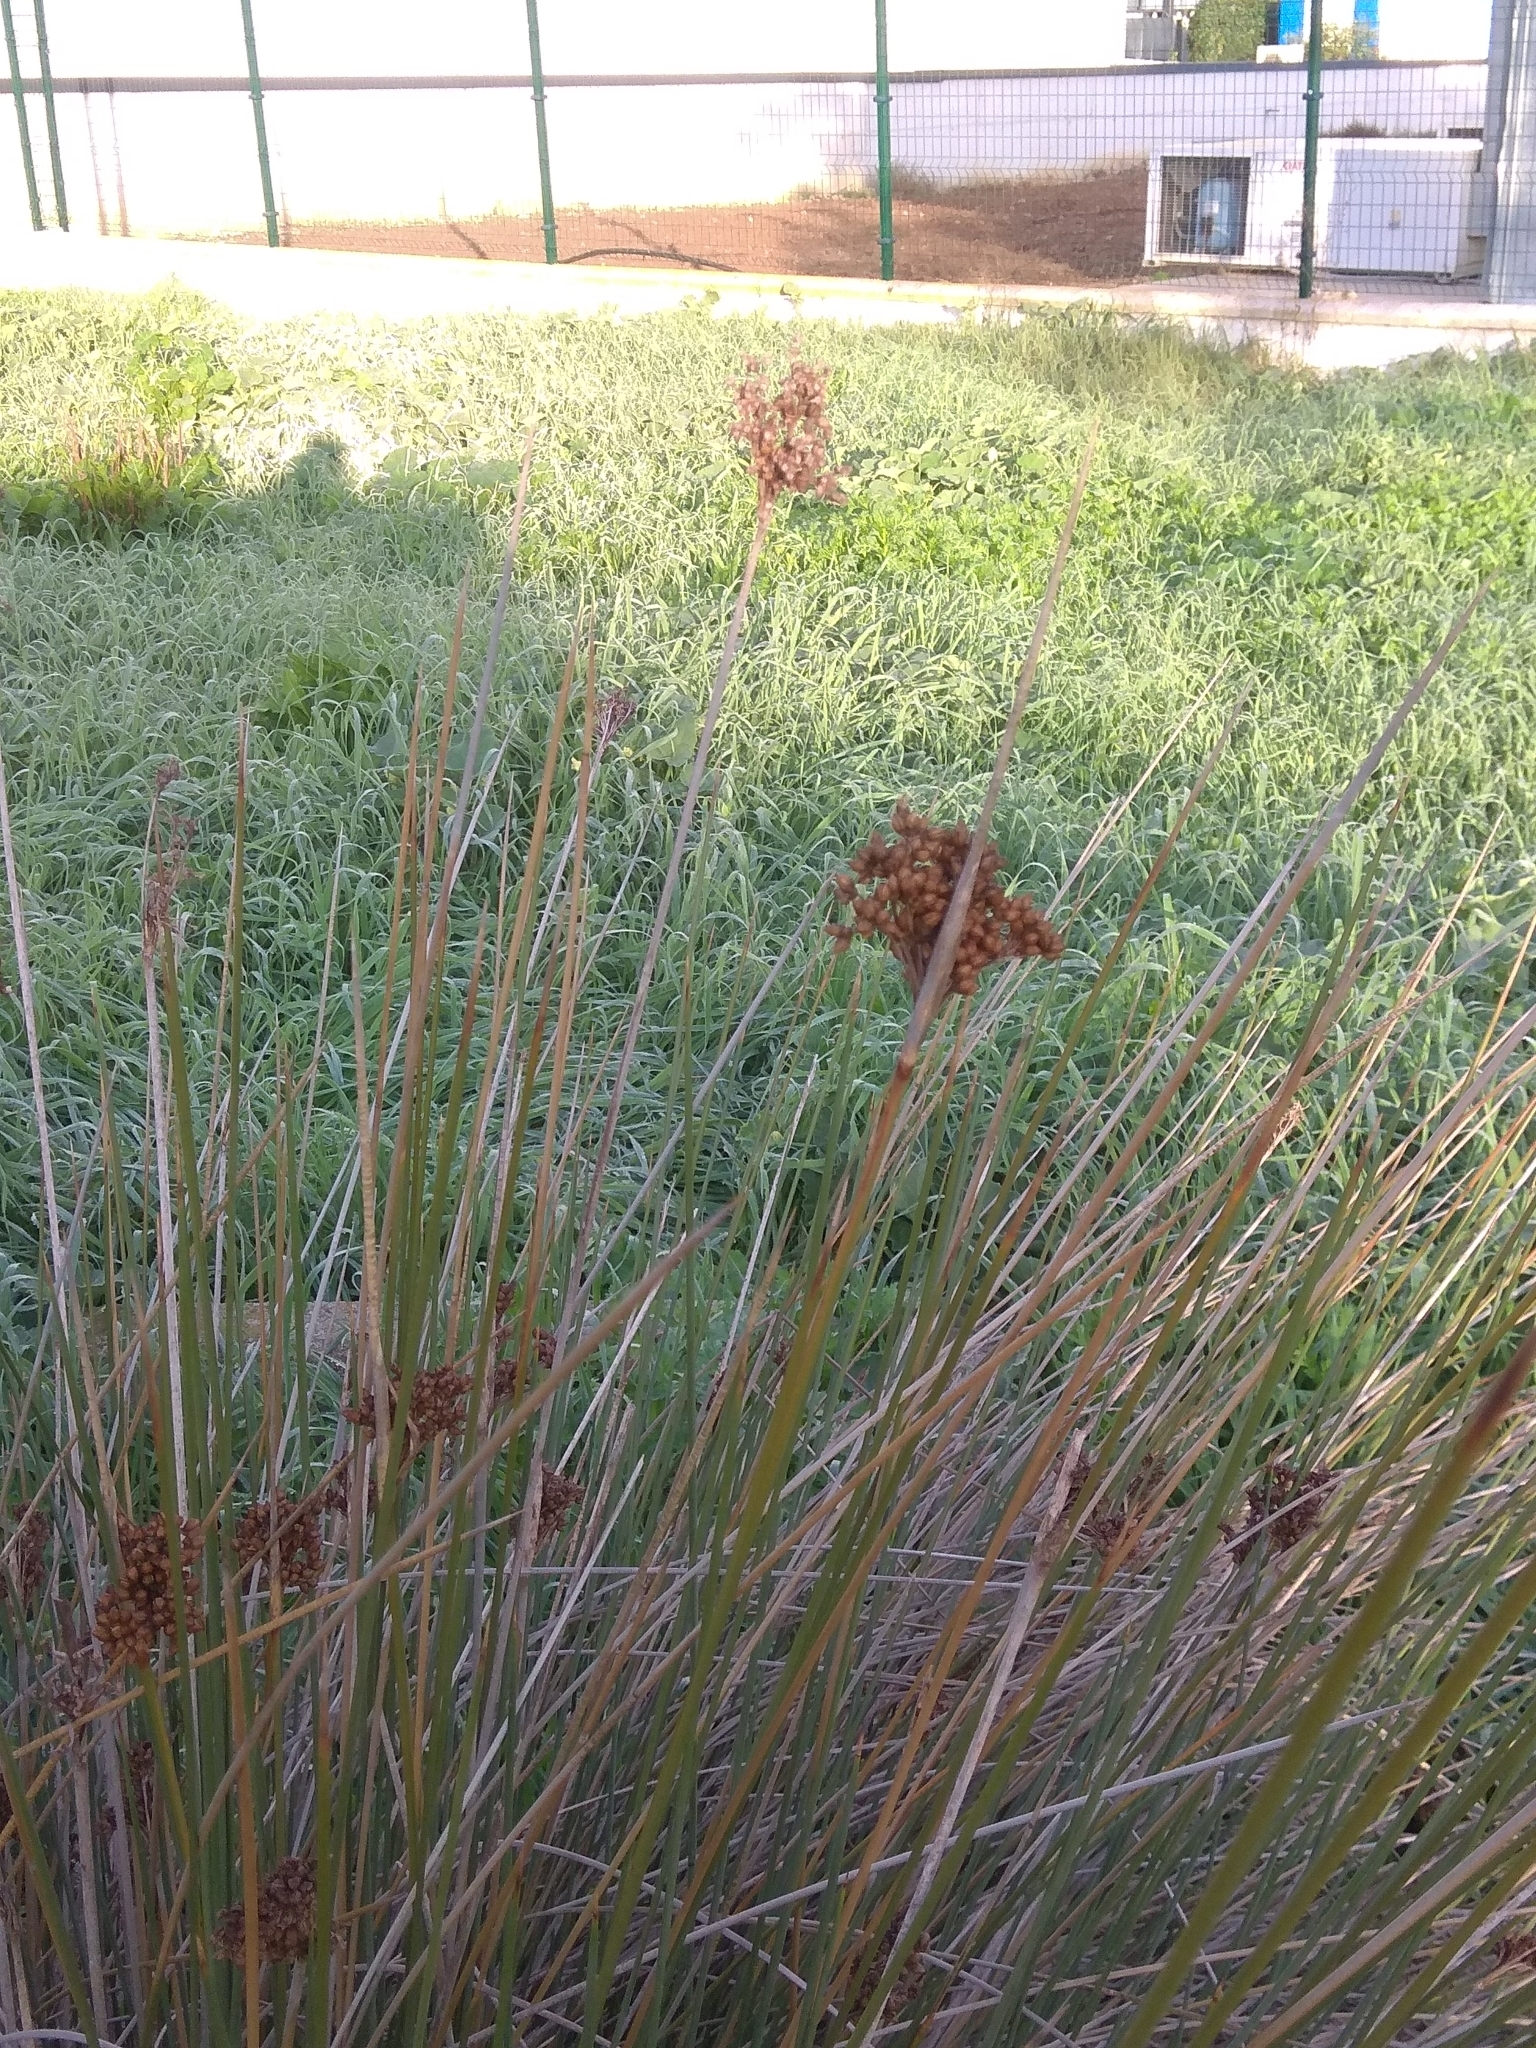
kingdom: Plantae
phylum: Tracheophyta
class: Liliopsida
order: Poales
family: Juncaceae
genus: Juncus
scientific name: Juncus acutus
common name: Sharp rush
